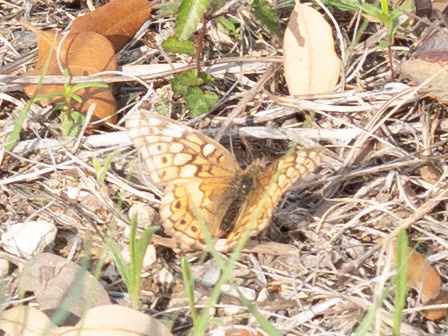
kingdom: Animalia
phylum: Arthropoda
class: Insecta
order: Lepidoptera
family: Nymphalidae
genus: Euptoieta
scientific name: Euptoieta claudia
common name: Variegated fritillary
